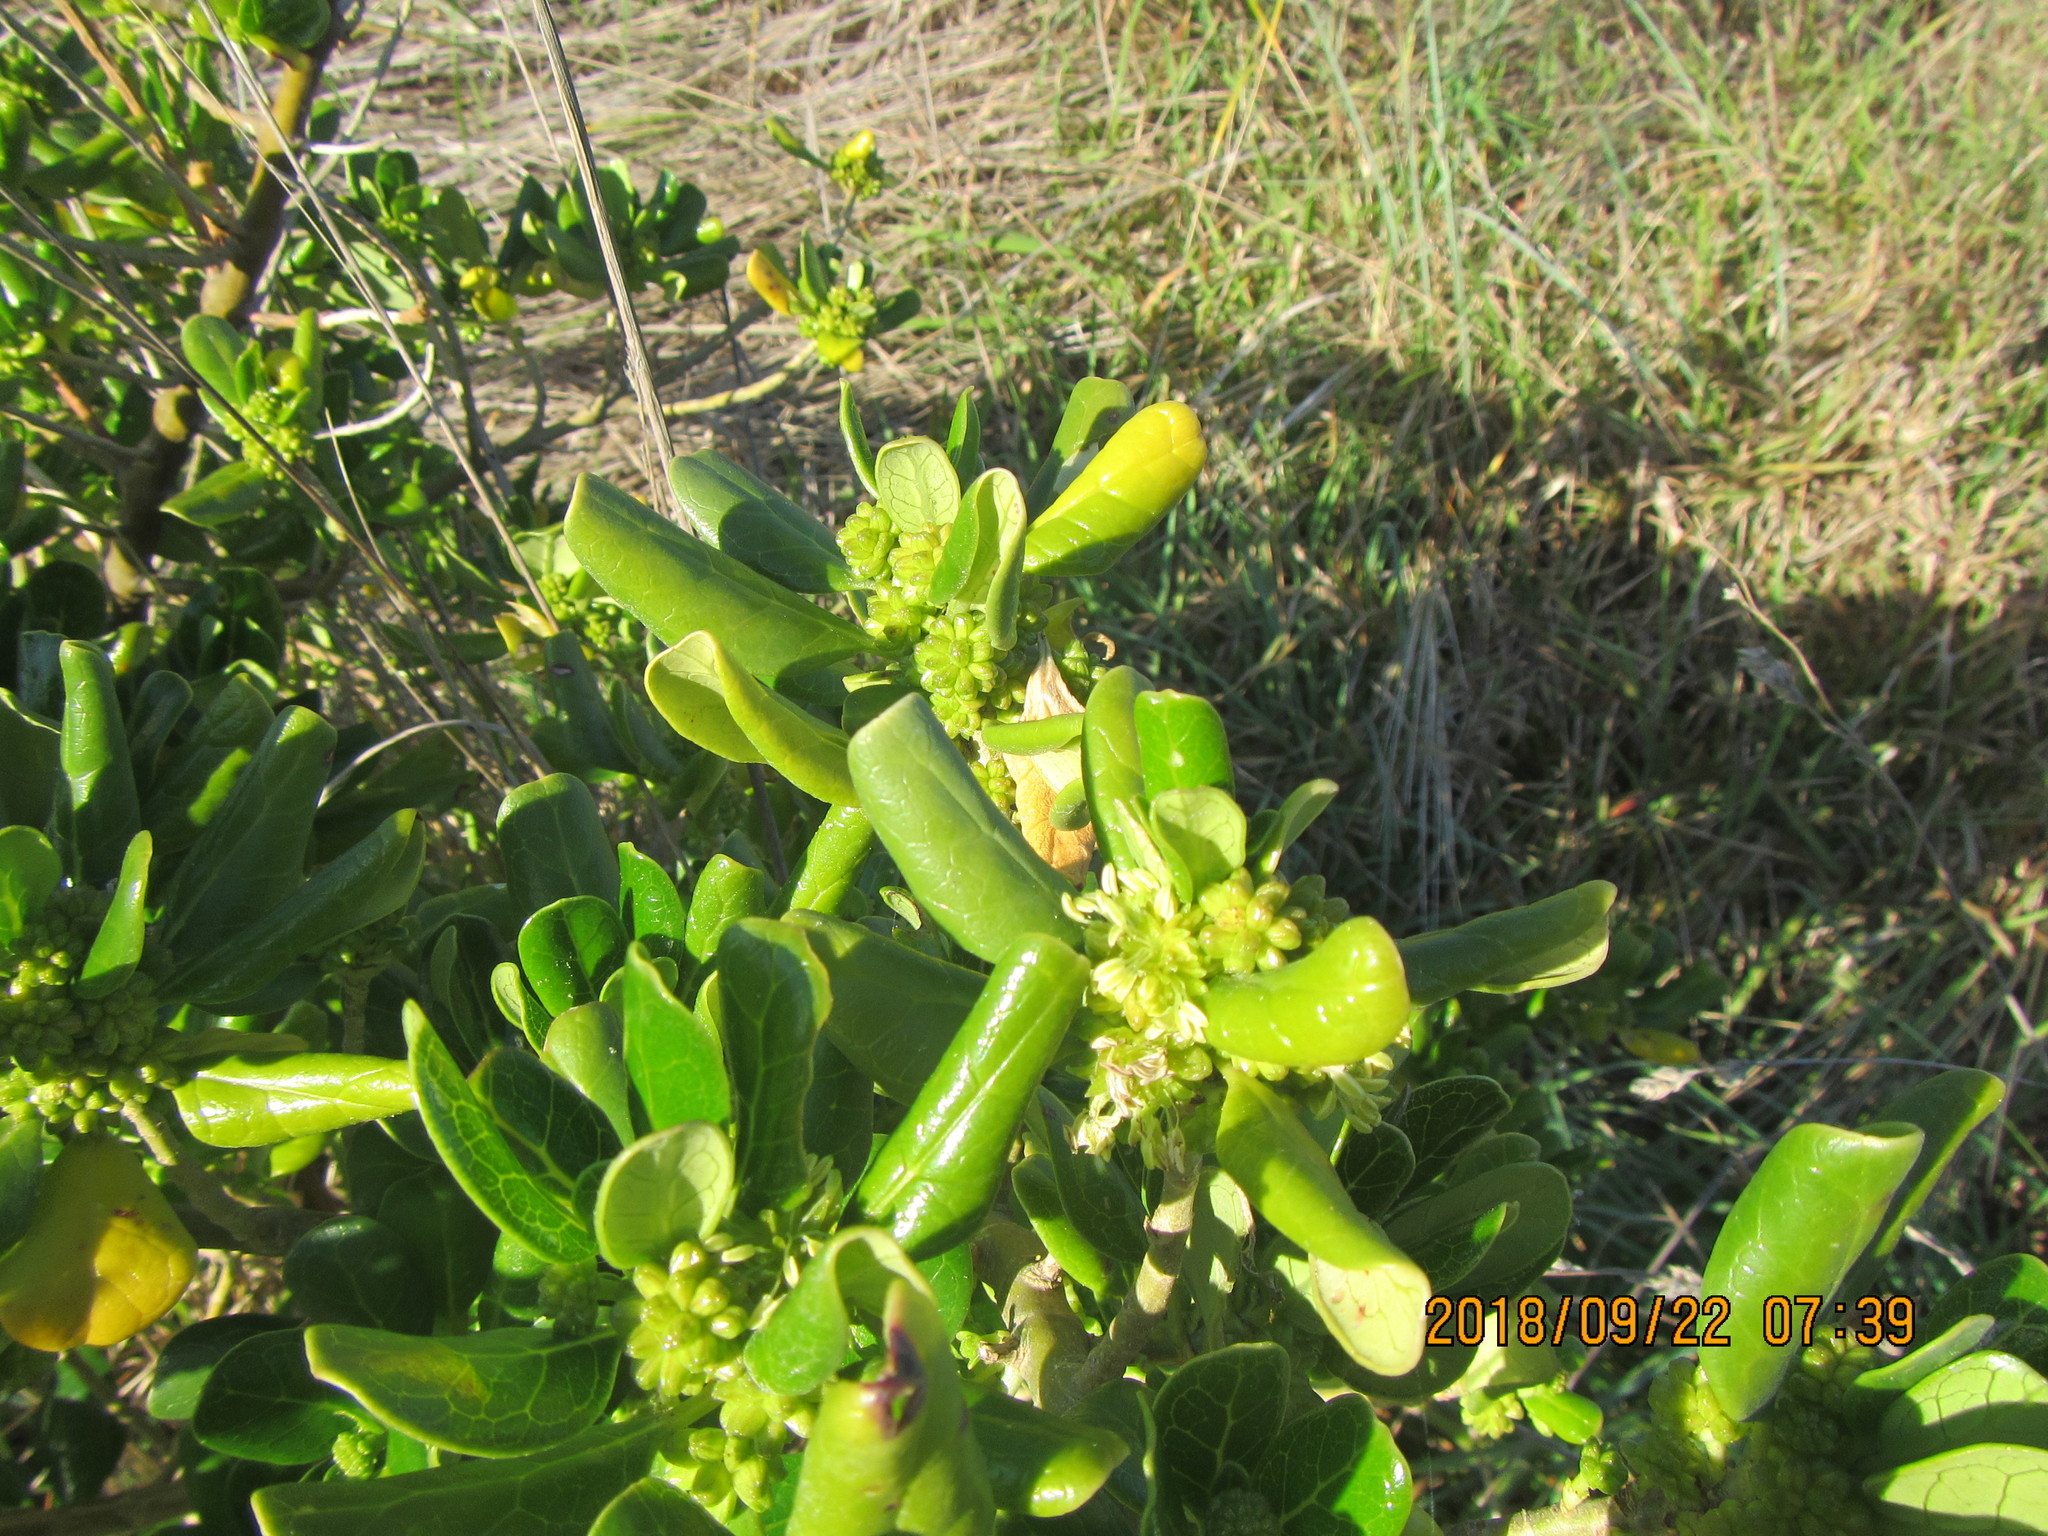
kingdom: Plantae
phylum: Tracheophyta
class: Magnoliopsida
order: Gentianales
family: Rubiaceae
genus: Coprosma
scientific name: Coprosma repens
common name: Tree bedstraw
